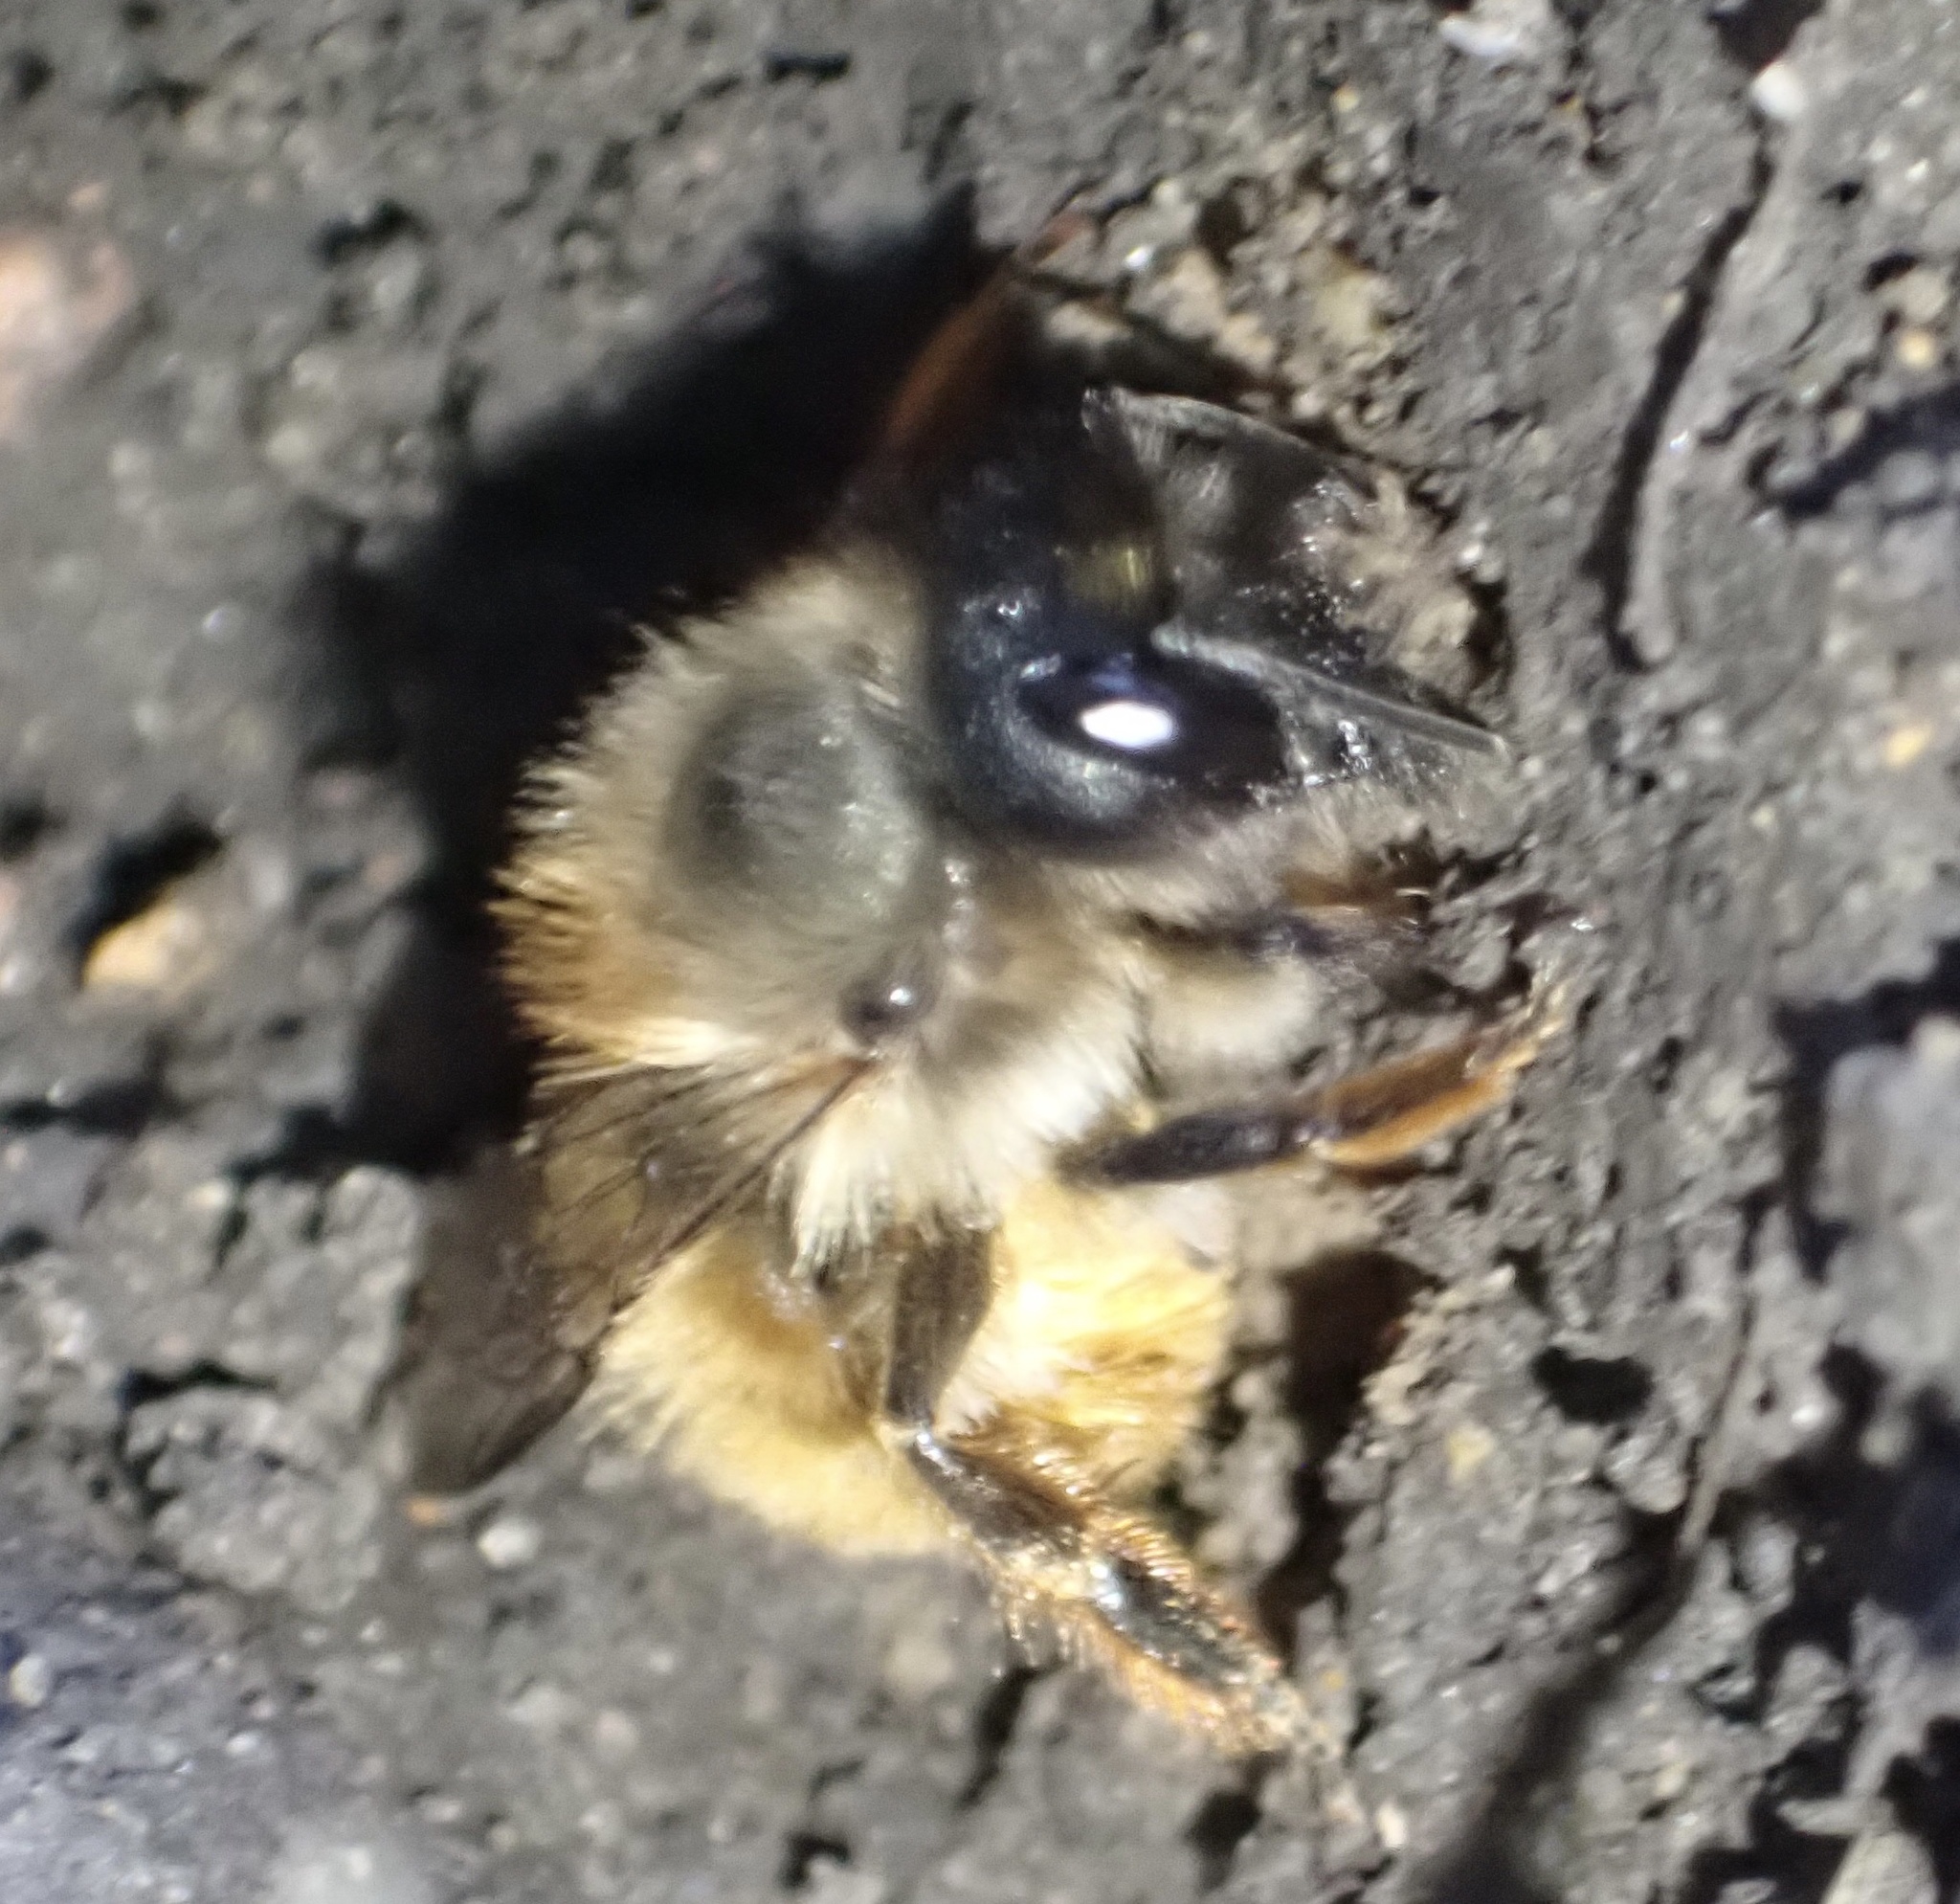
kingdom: Animalia
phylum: Arthropoda
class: Insecta
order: Hymenoptera
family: Megachilidae
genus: Osmia
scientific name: Osmia bicornis
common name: Red mason bee
